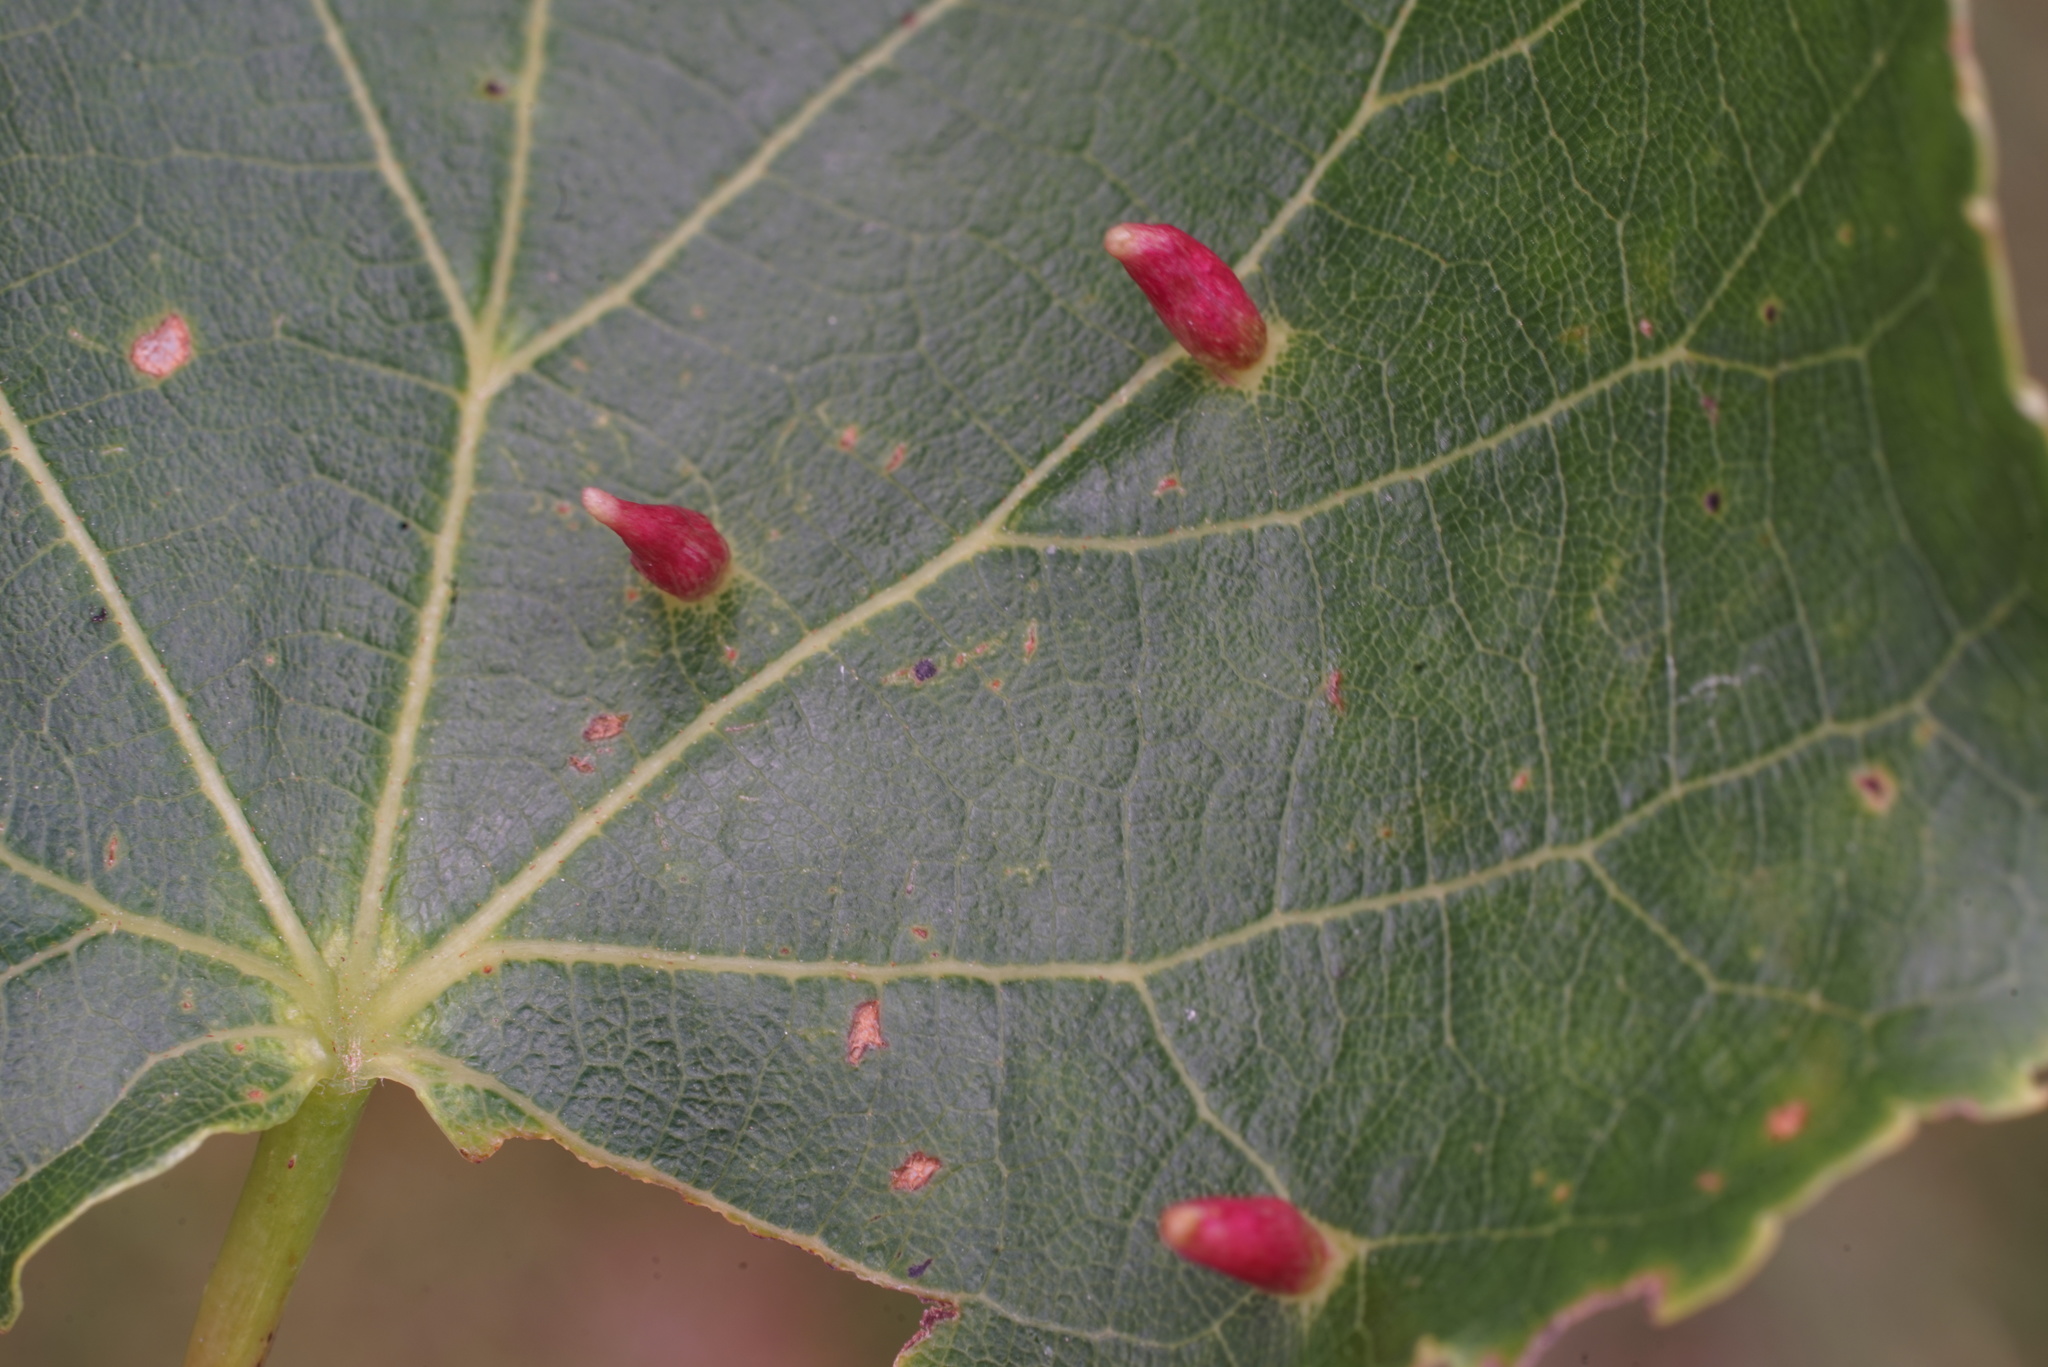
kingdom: Animalia
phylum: Arthropoda
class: Arachnida
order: Trombidiformes
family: Eriophyidae
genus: Eriophyes
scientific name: Eriophyes tiliae
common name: Red nail gall mite
